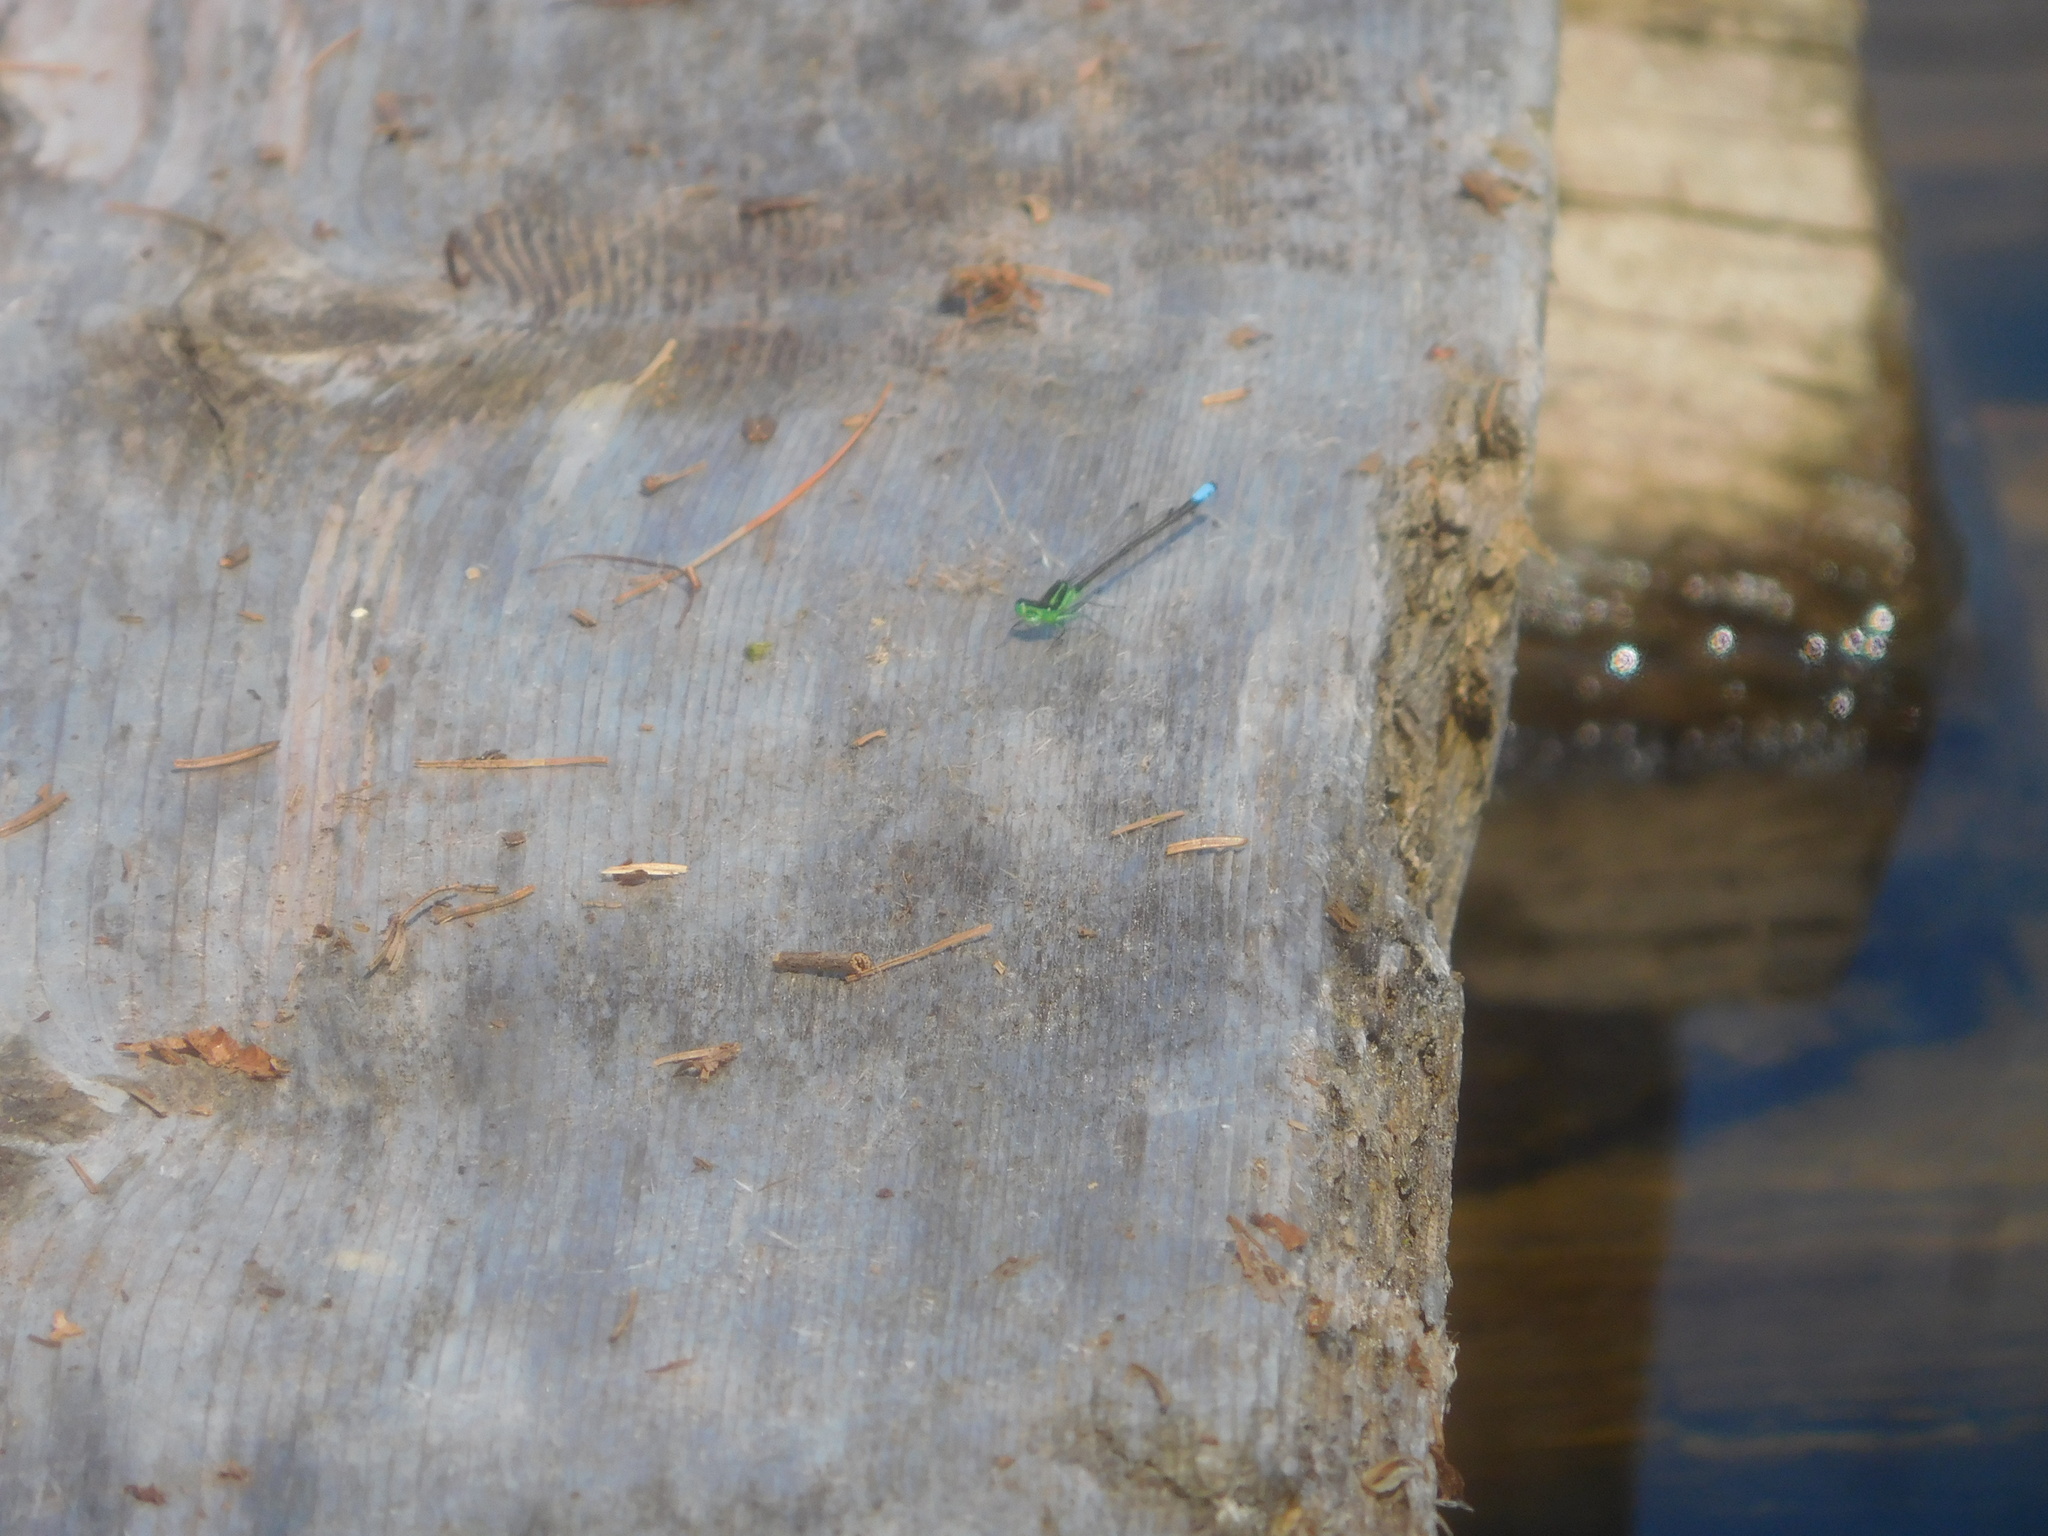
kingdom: Animalia
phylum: Arthropoda
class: Insecta
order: Odonata
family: Coenagrionidae
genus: Ischnura
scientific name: Ischnura verticalis
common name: Eastern forktail
